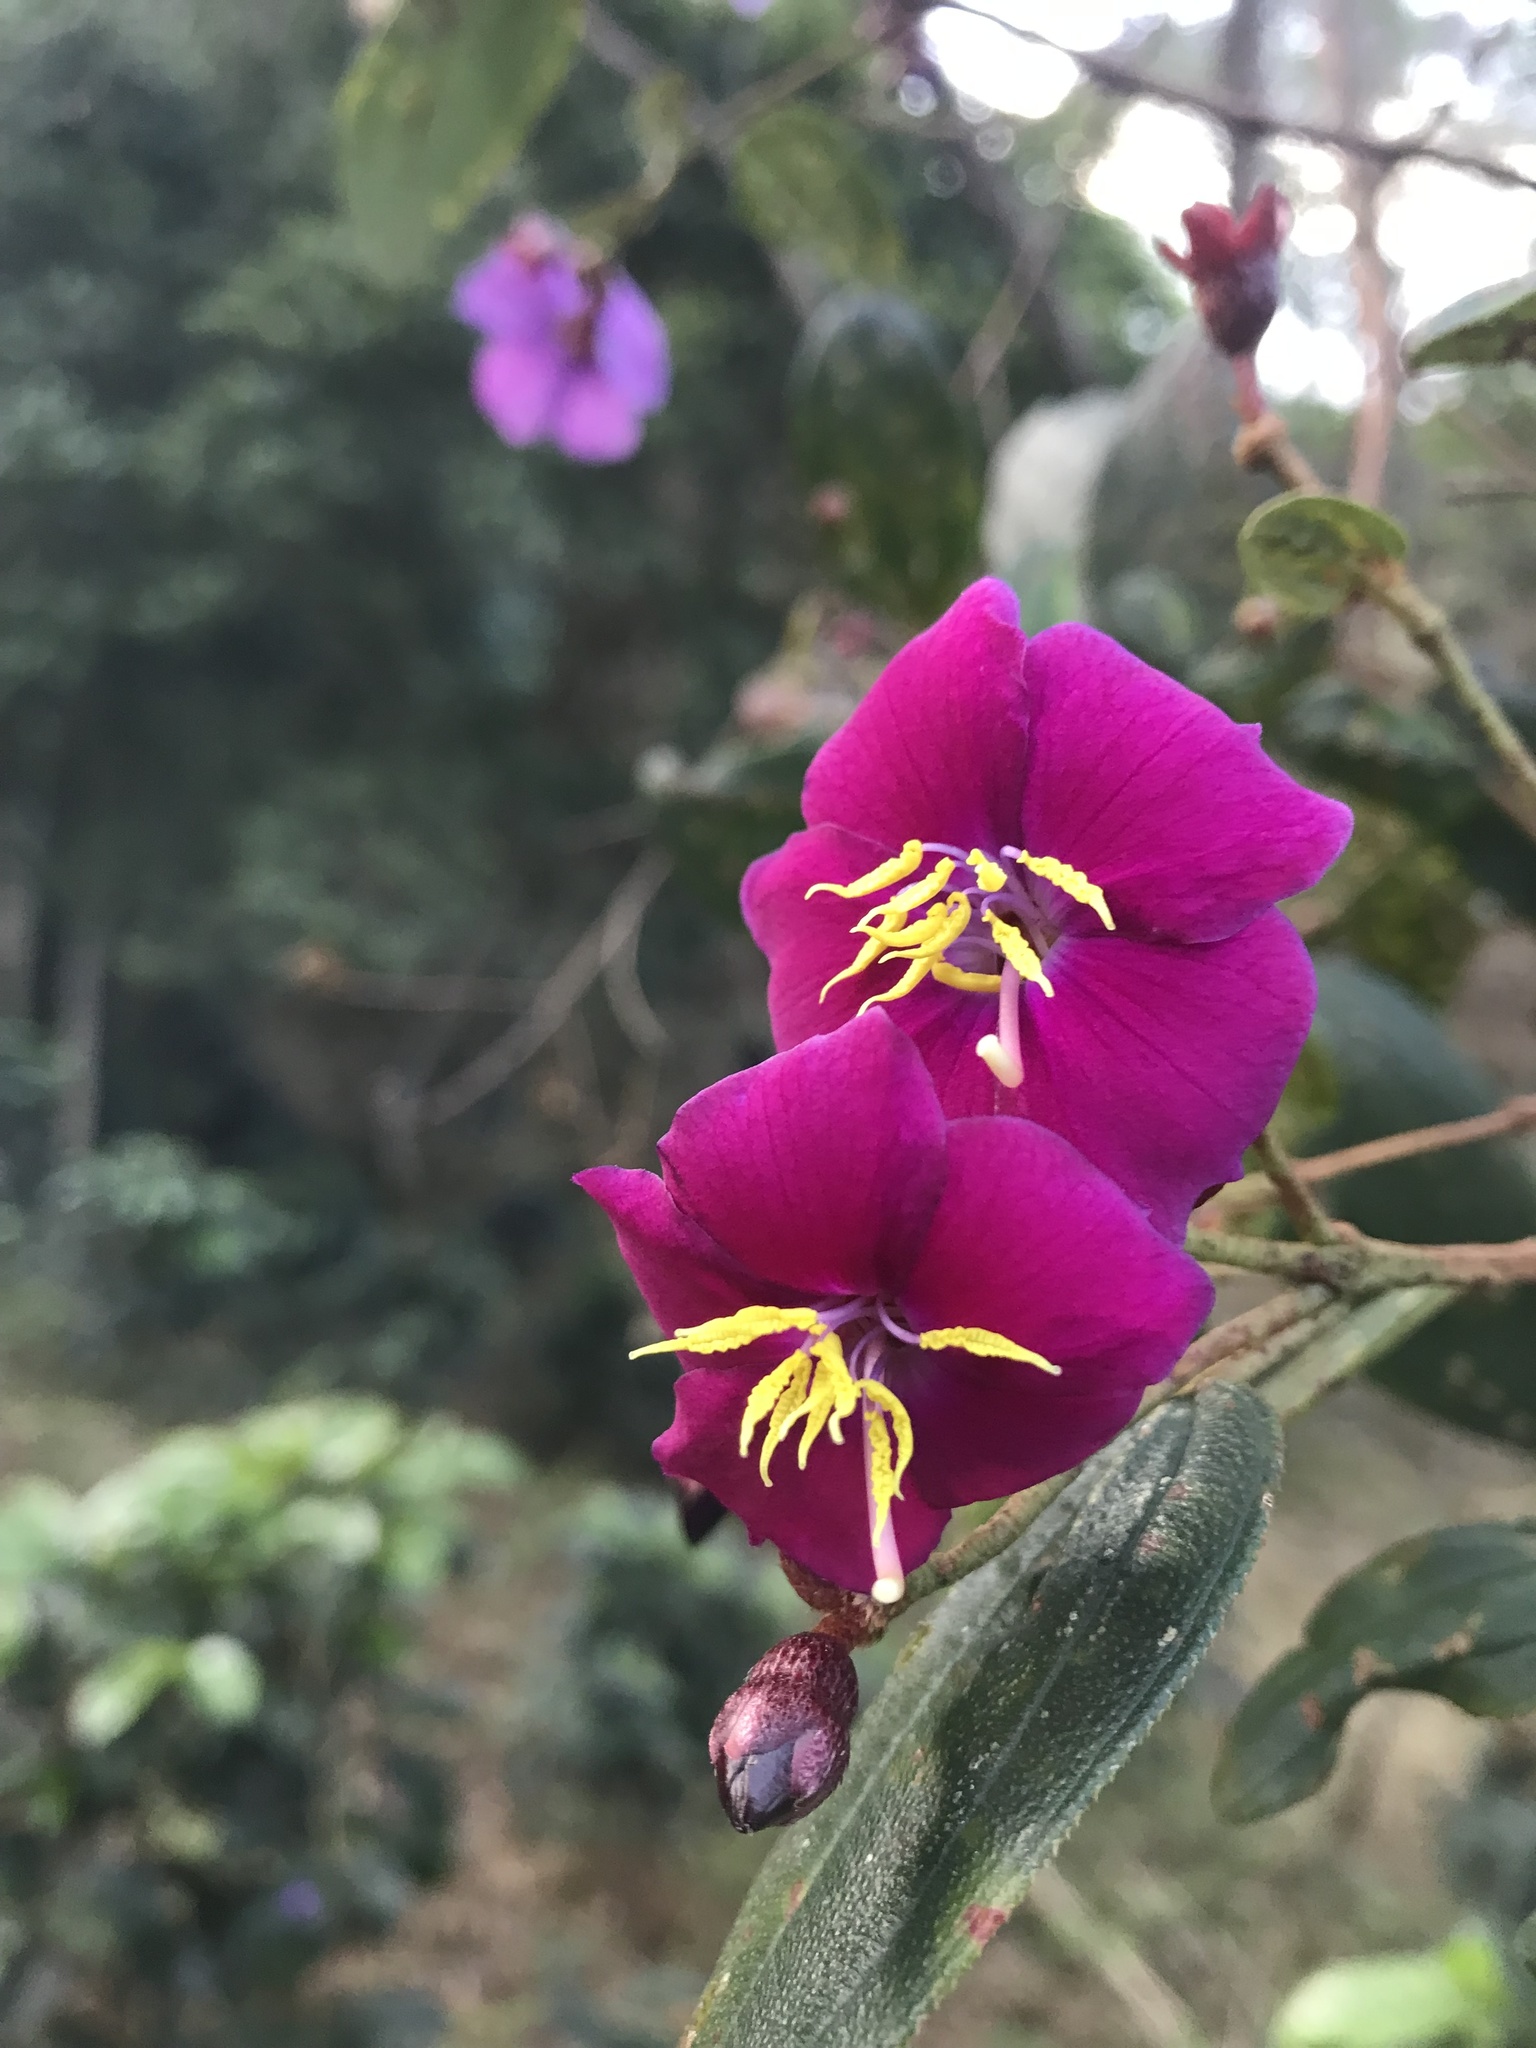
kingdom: Plantae
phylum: Tracheophyta
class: Magnoliopsida
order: Myrtales
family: Melastomataceae
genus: Andesanthus
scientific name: Andesanthus lepidotus
